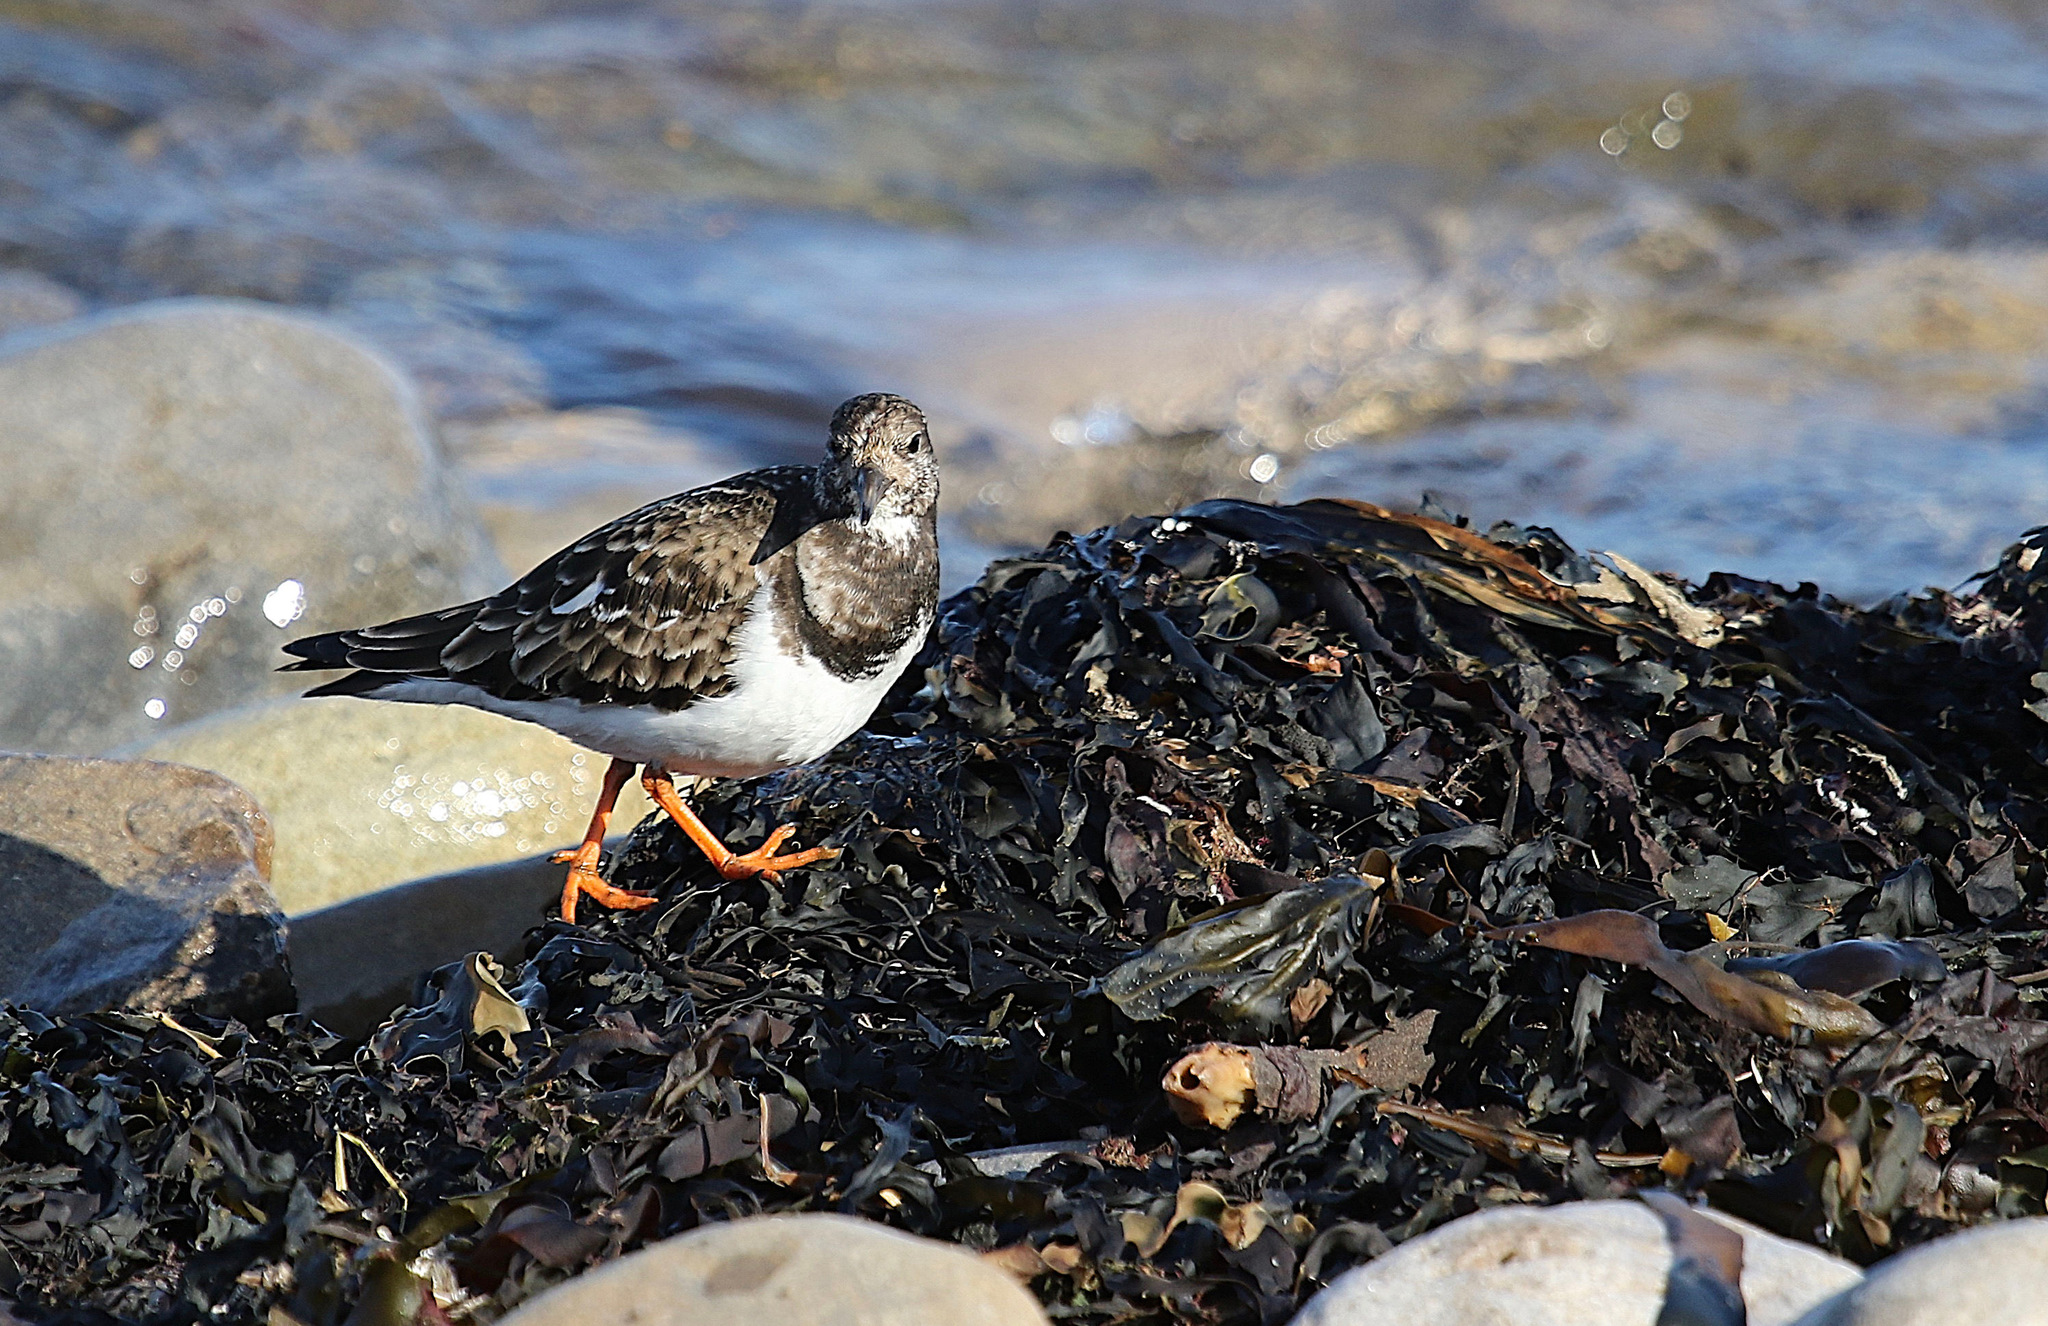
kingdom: Animalia
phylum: Chordata
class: Aves
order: Charadriiformes
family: Scolopacidae
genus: Arenaria
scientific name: Arenaria interpres
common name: Ruddy turnstone
